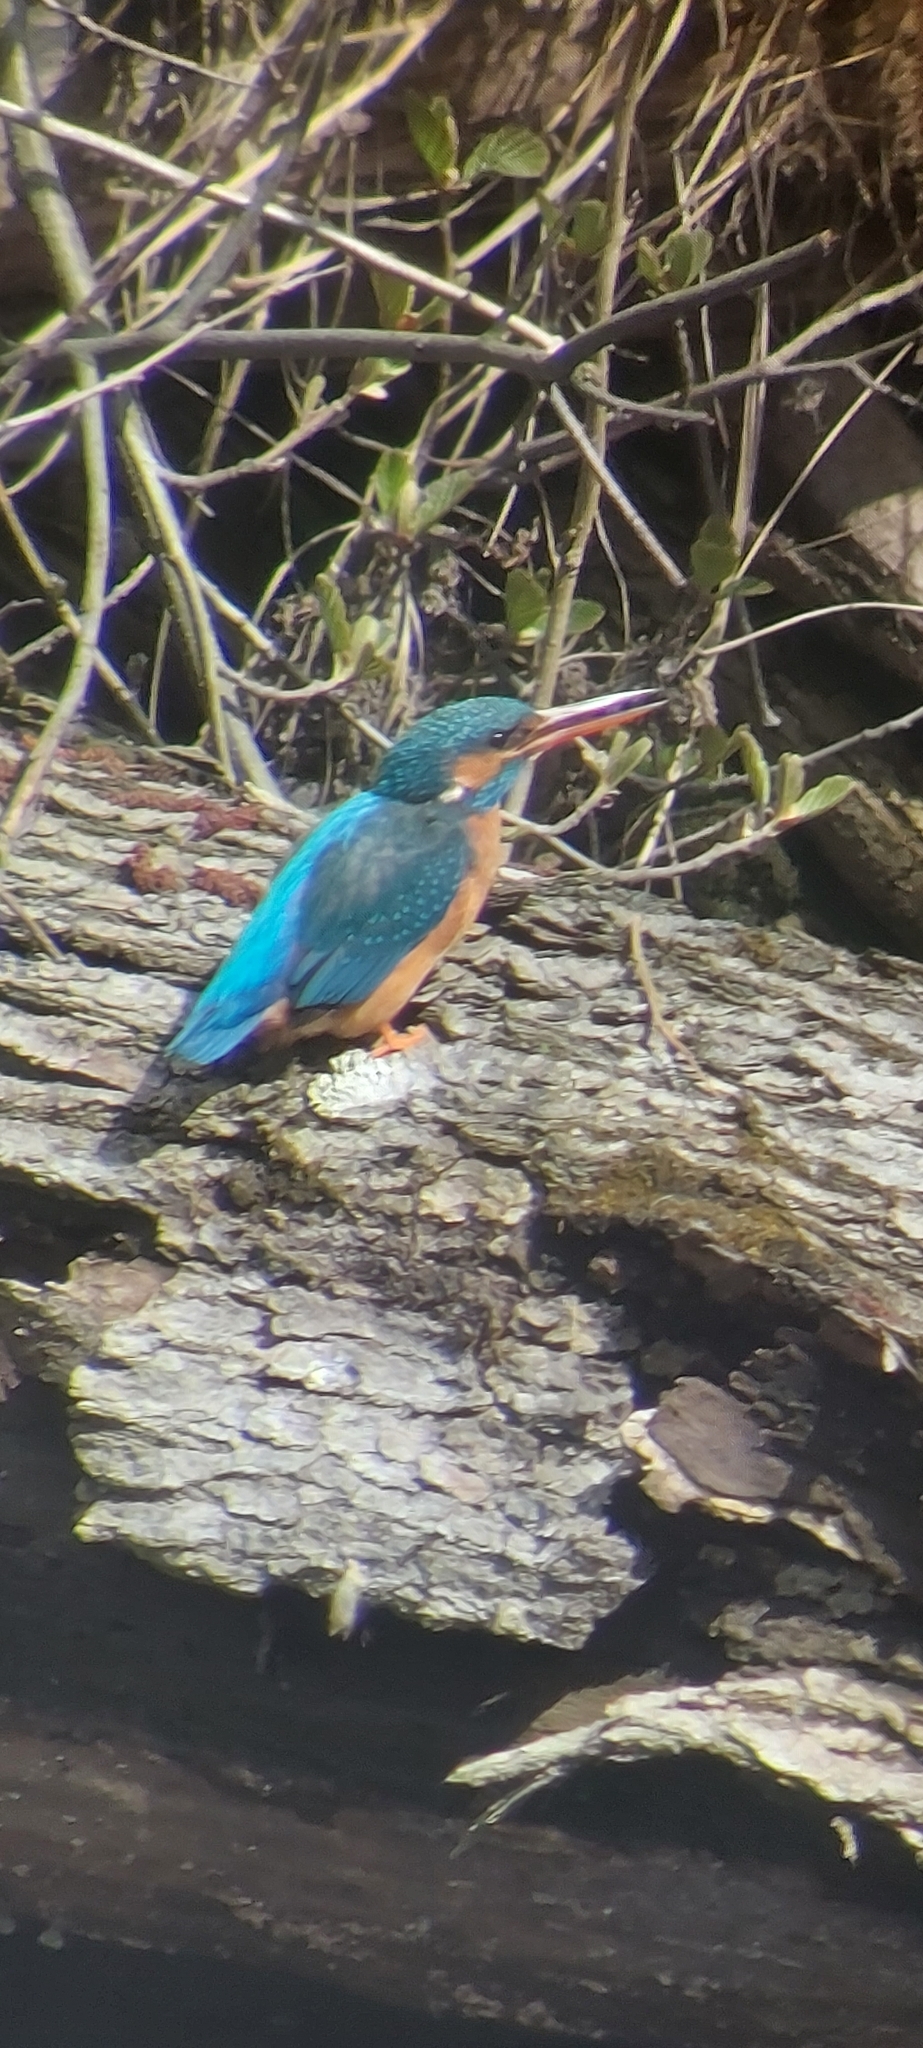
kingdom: Animalia
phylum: Chordata
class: Aves
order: Coraciiformes
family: Alcedinidae
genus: Alcedo
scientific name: Alcedo atthis
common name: Common kingfisher
